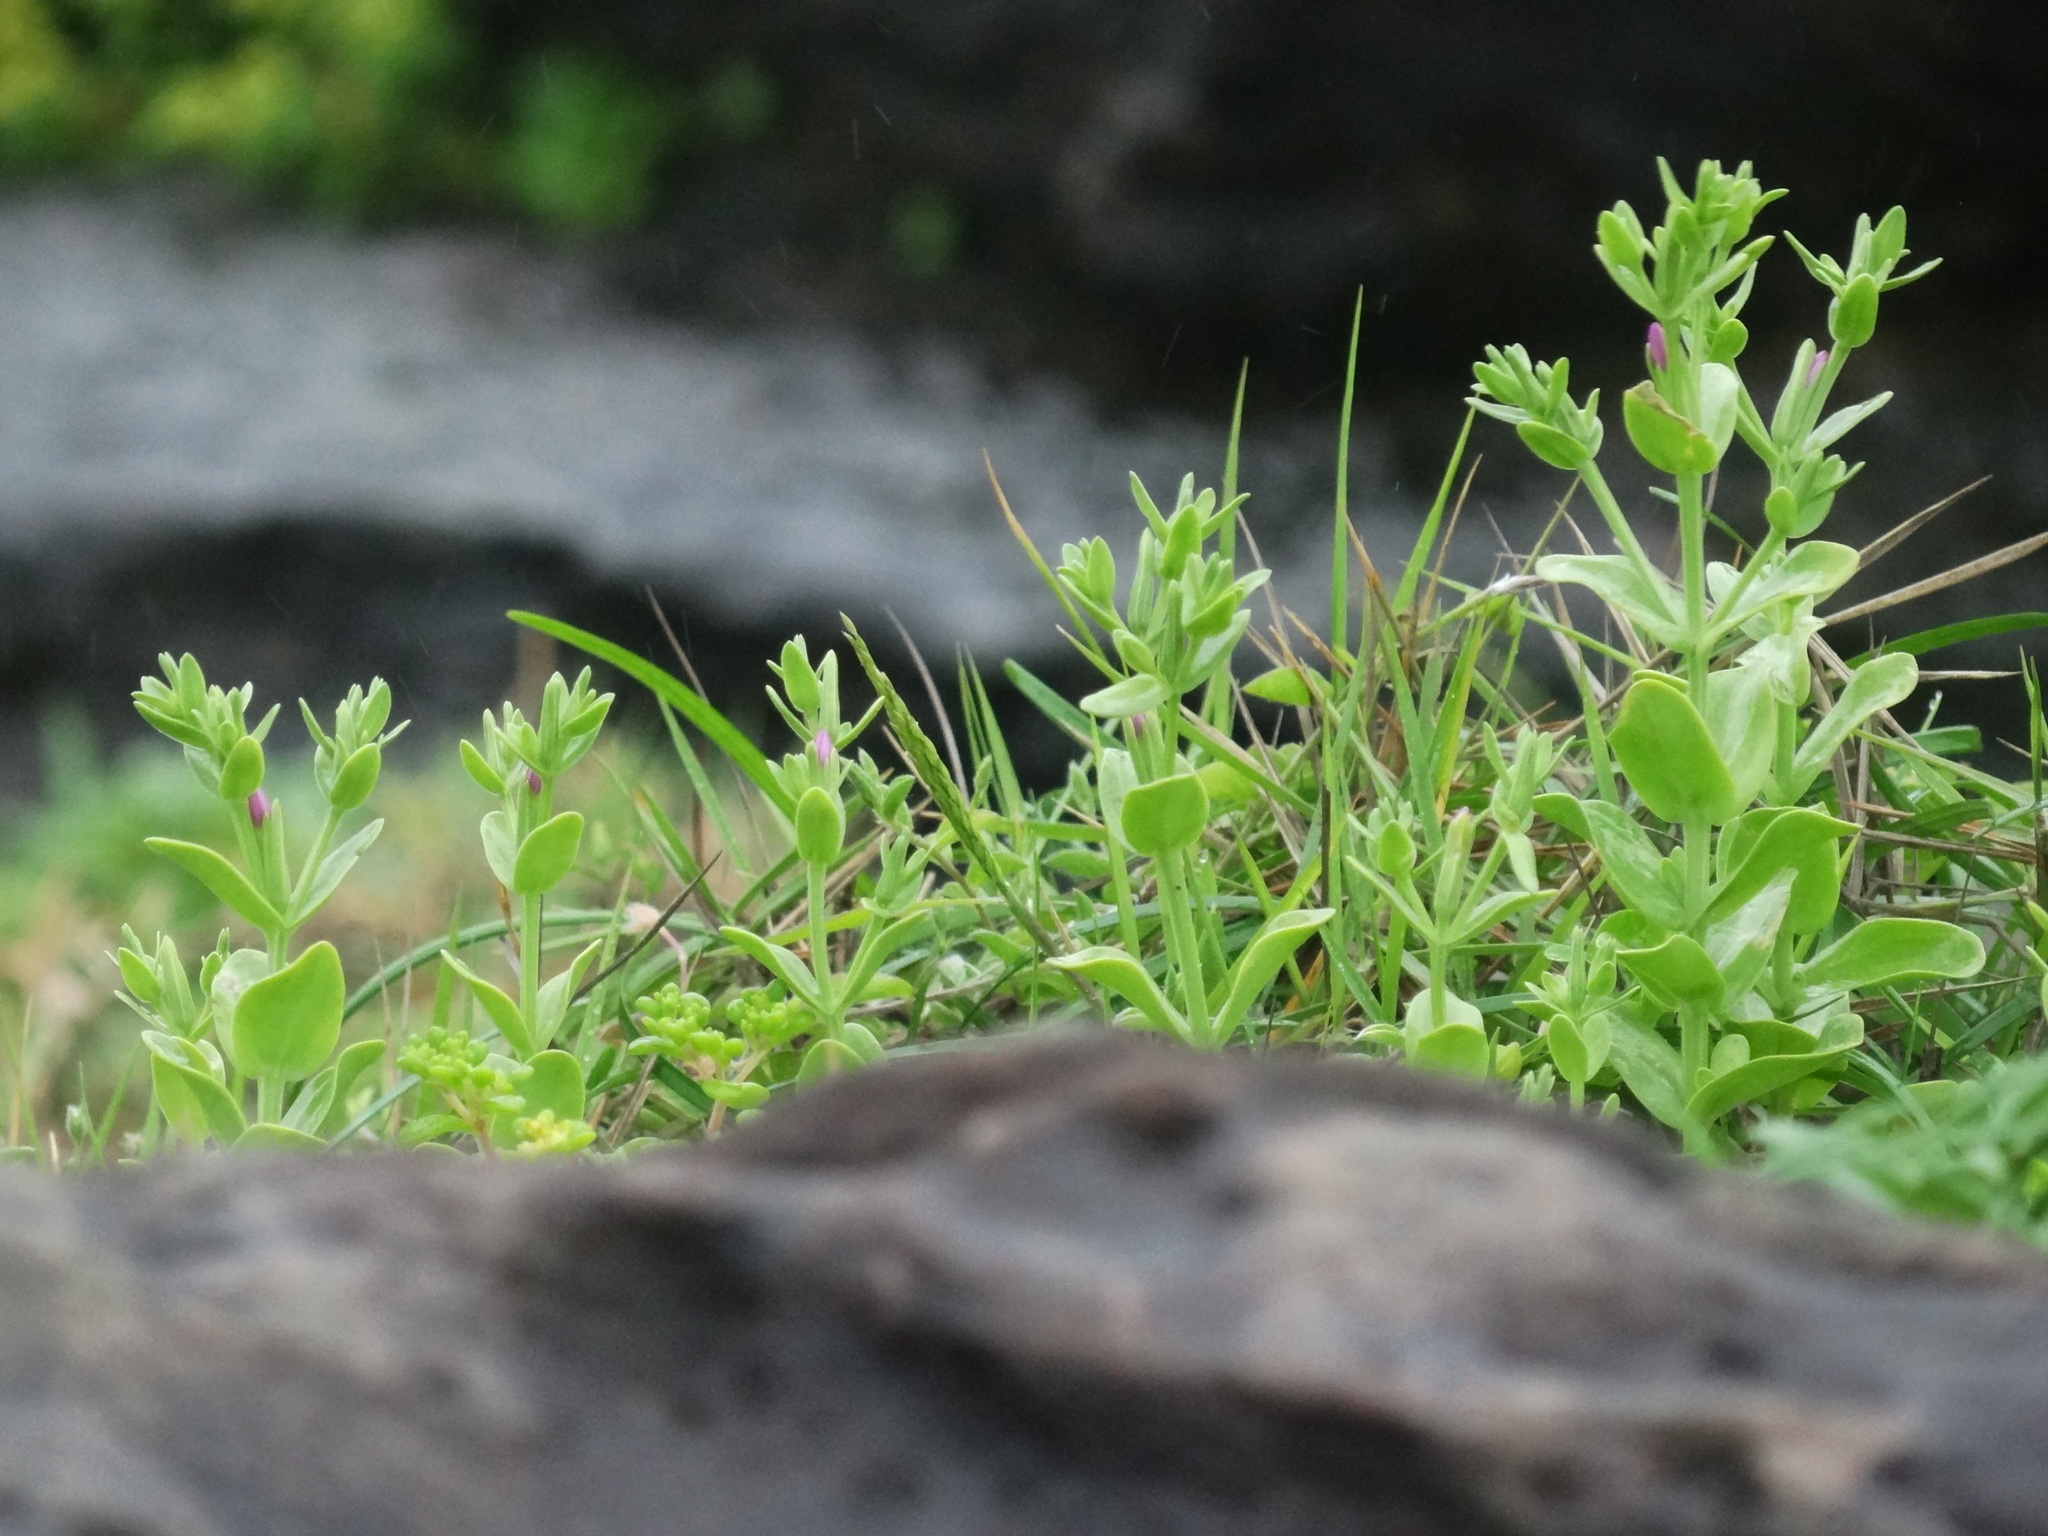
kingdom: Plantae
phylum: Tracheophyta
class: Magnoliopsida
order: Gentianales
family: Gentianaceae
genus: Schenkia
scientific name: Schenkia japonica
